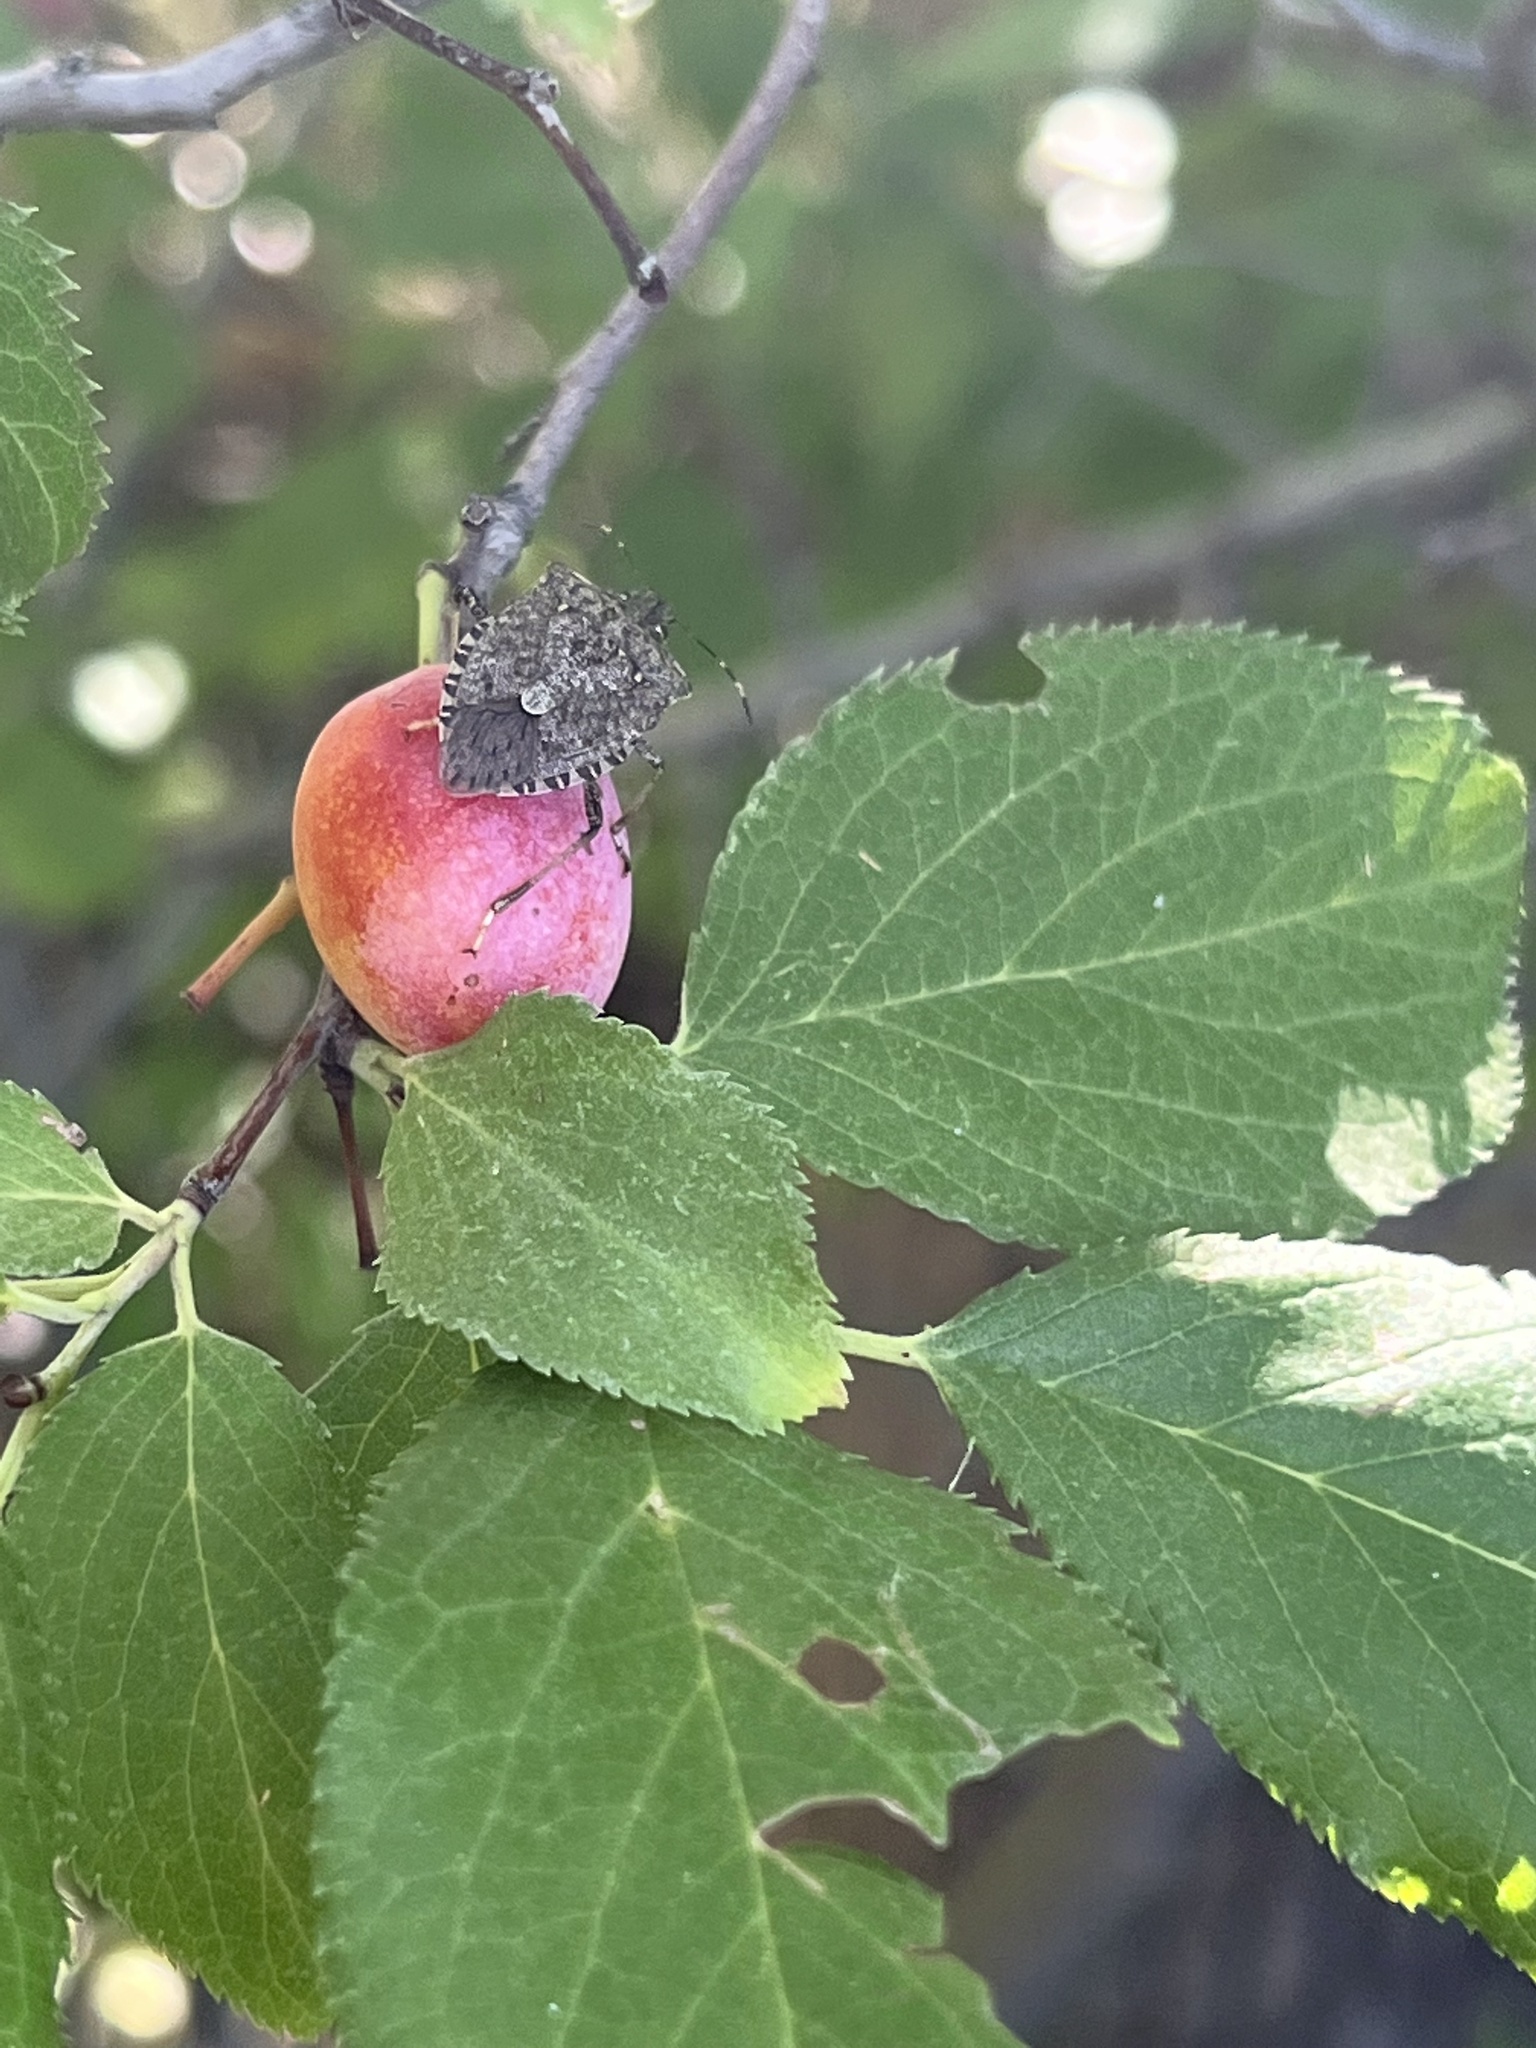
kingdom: Animalia
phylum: Arthropoda
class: Insecta
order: Hemiptera
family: Pentatomidae
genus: Halyomorpha
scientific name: Halyomorpha halys
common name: Brown marmorated stink bug
